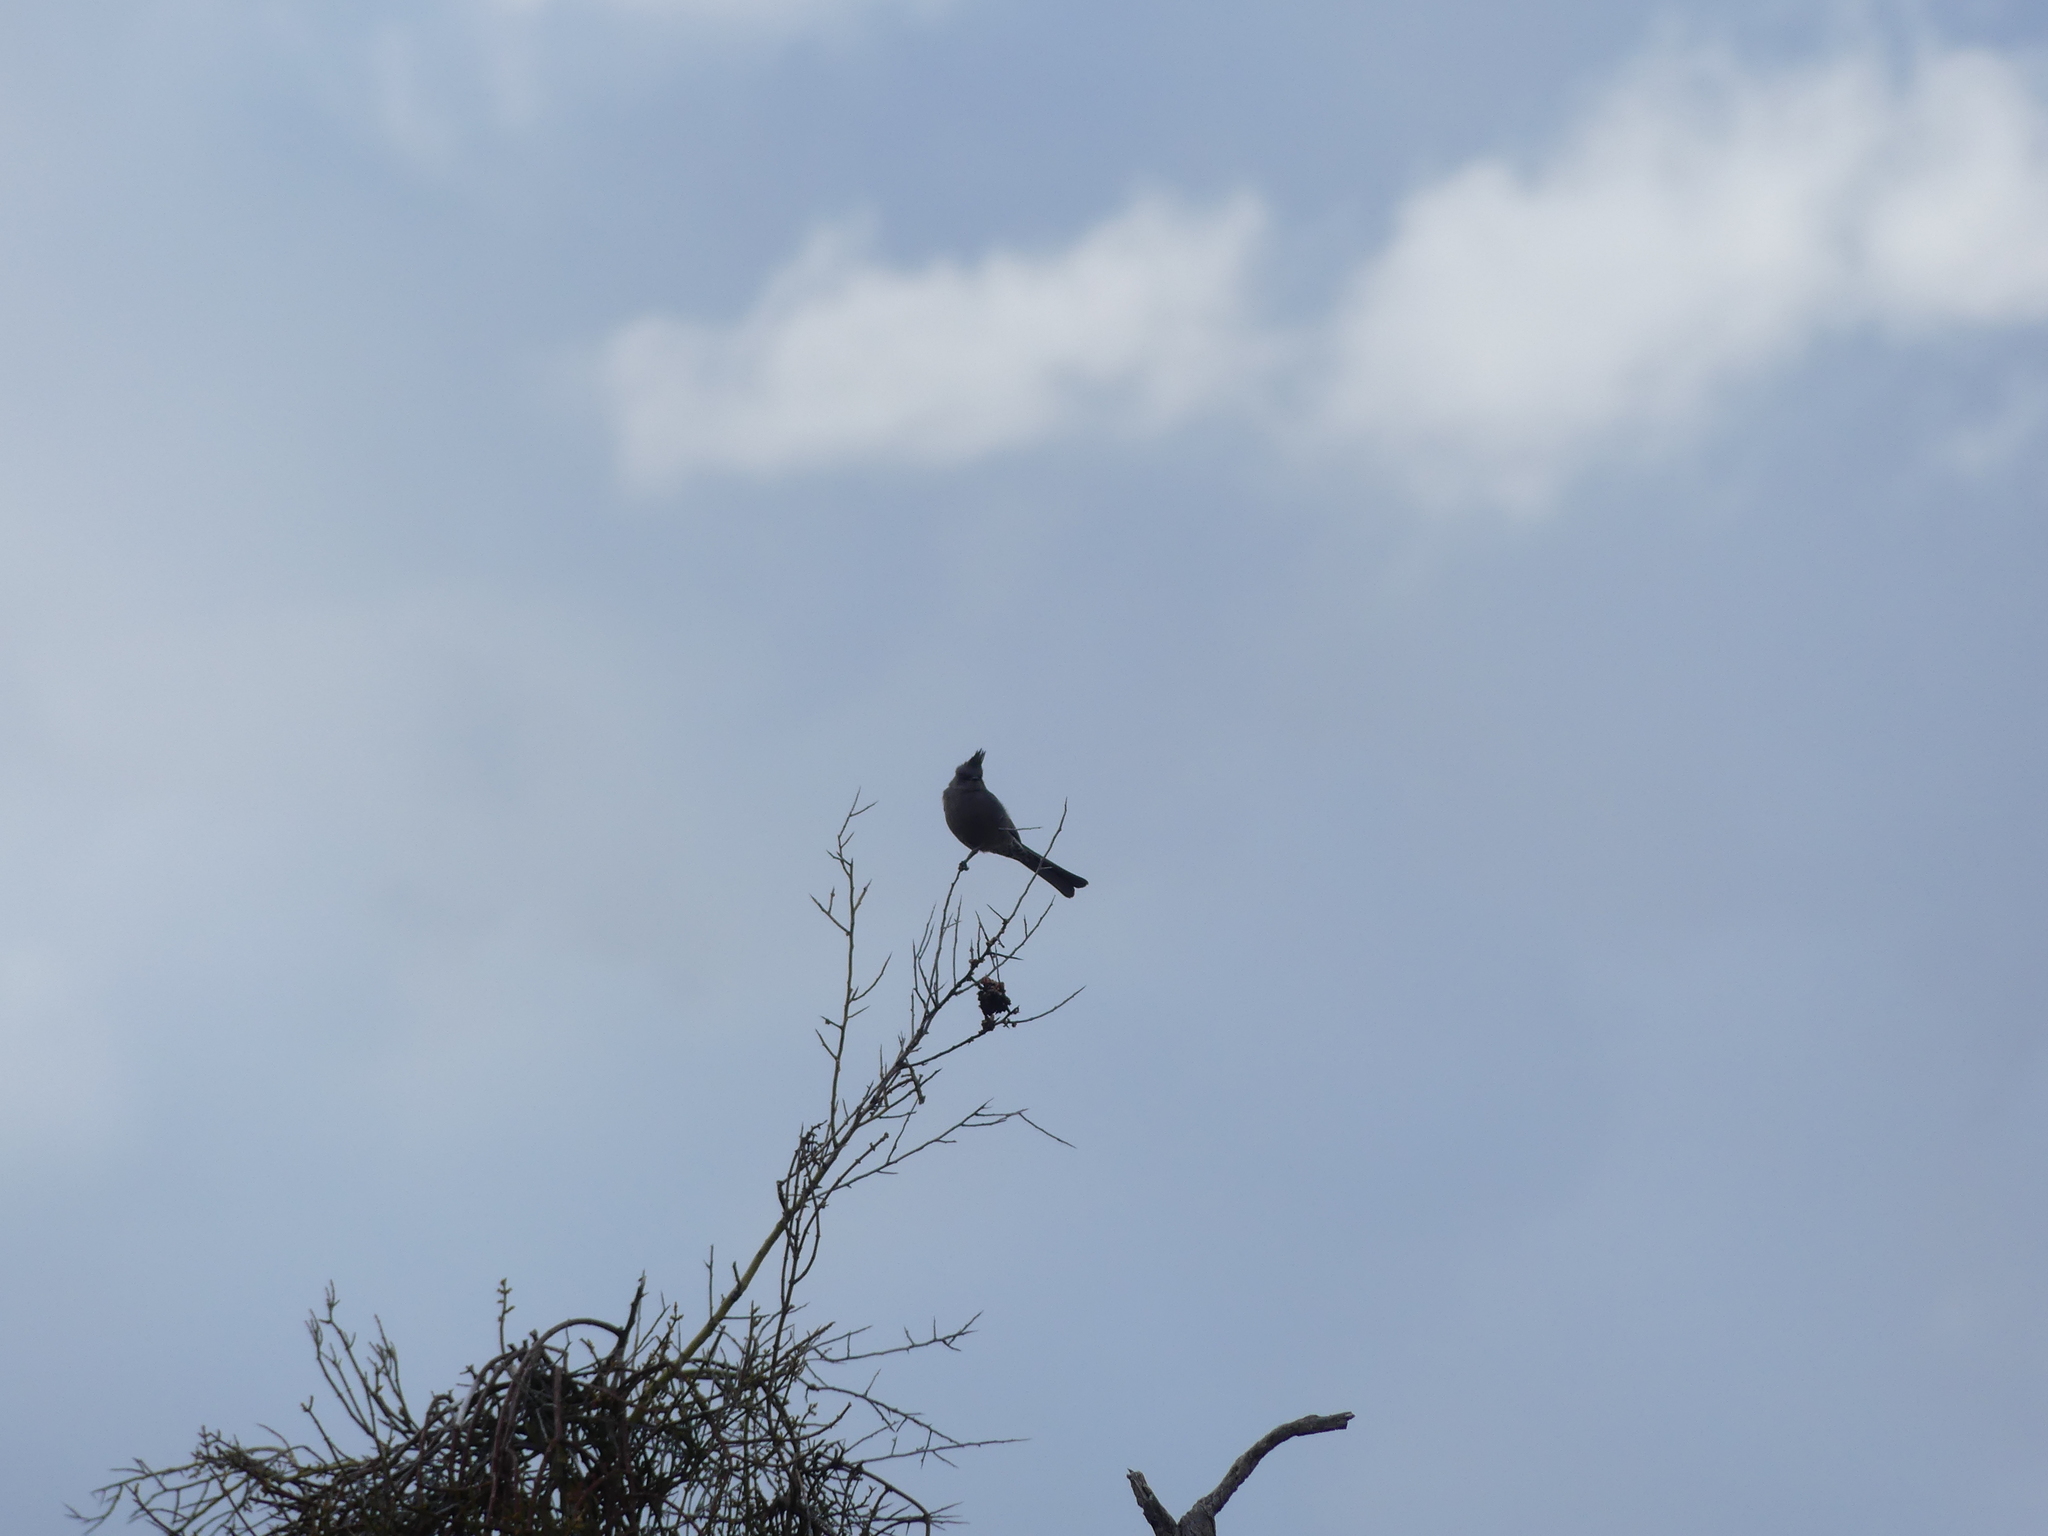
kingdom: Animalia
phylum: Chordata
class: Aves
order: Passeriformes
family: Ptilogonatidae
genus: Phainopepla
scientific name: Phainopepla nitens
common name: Phainopepla
